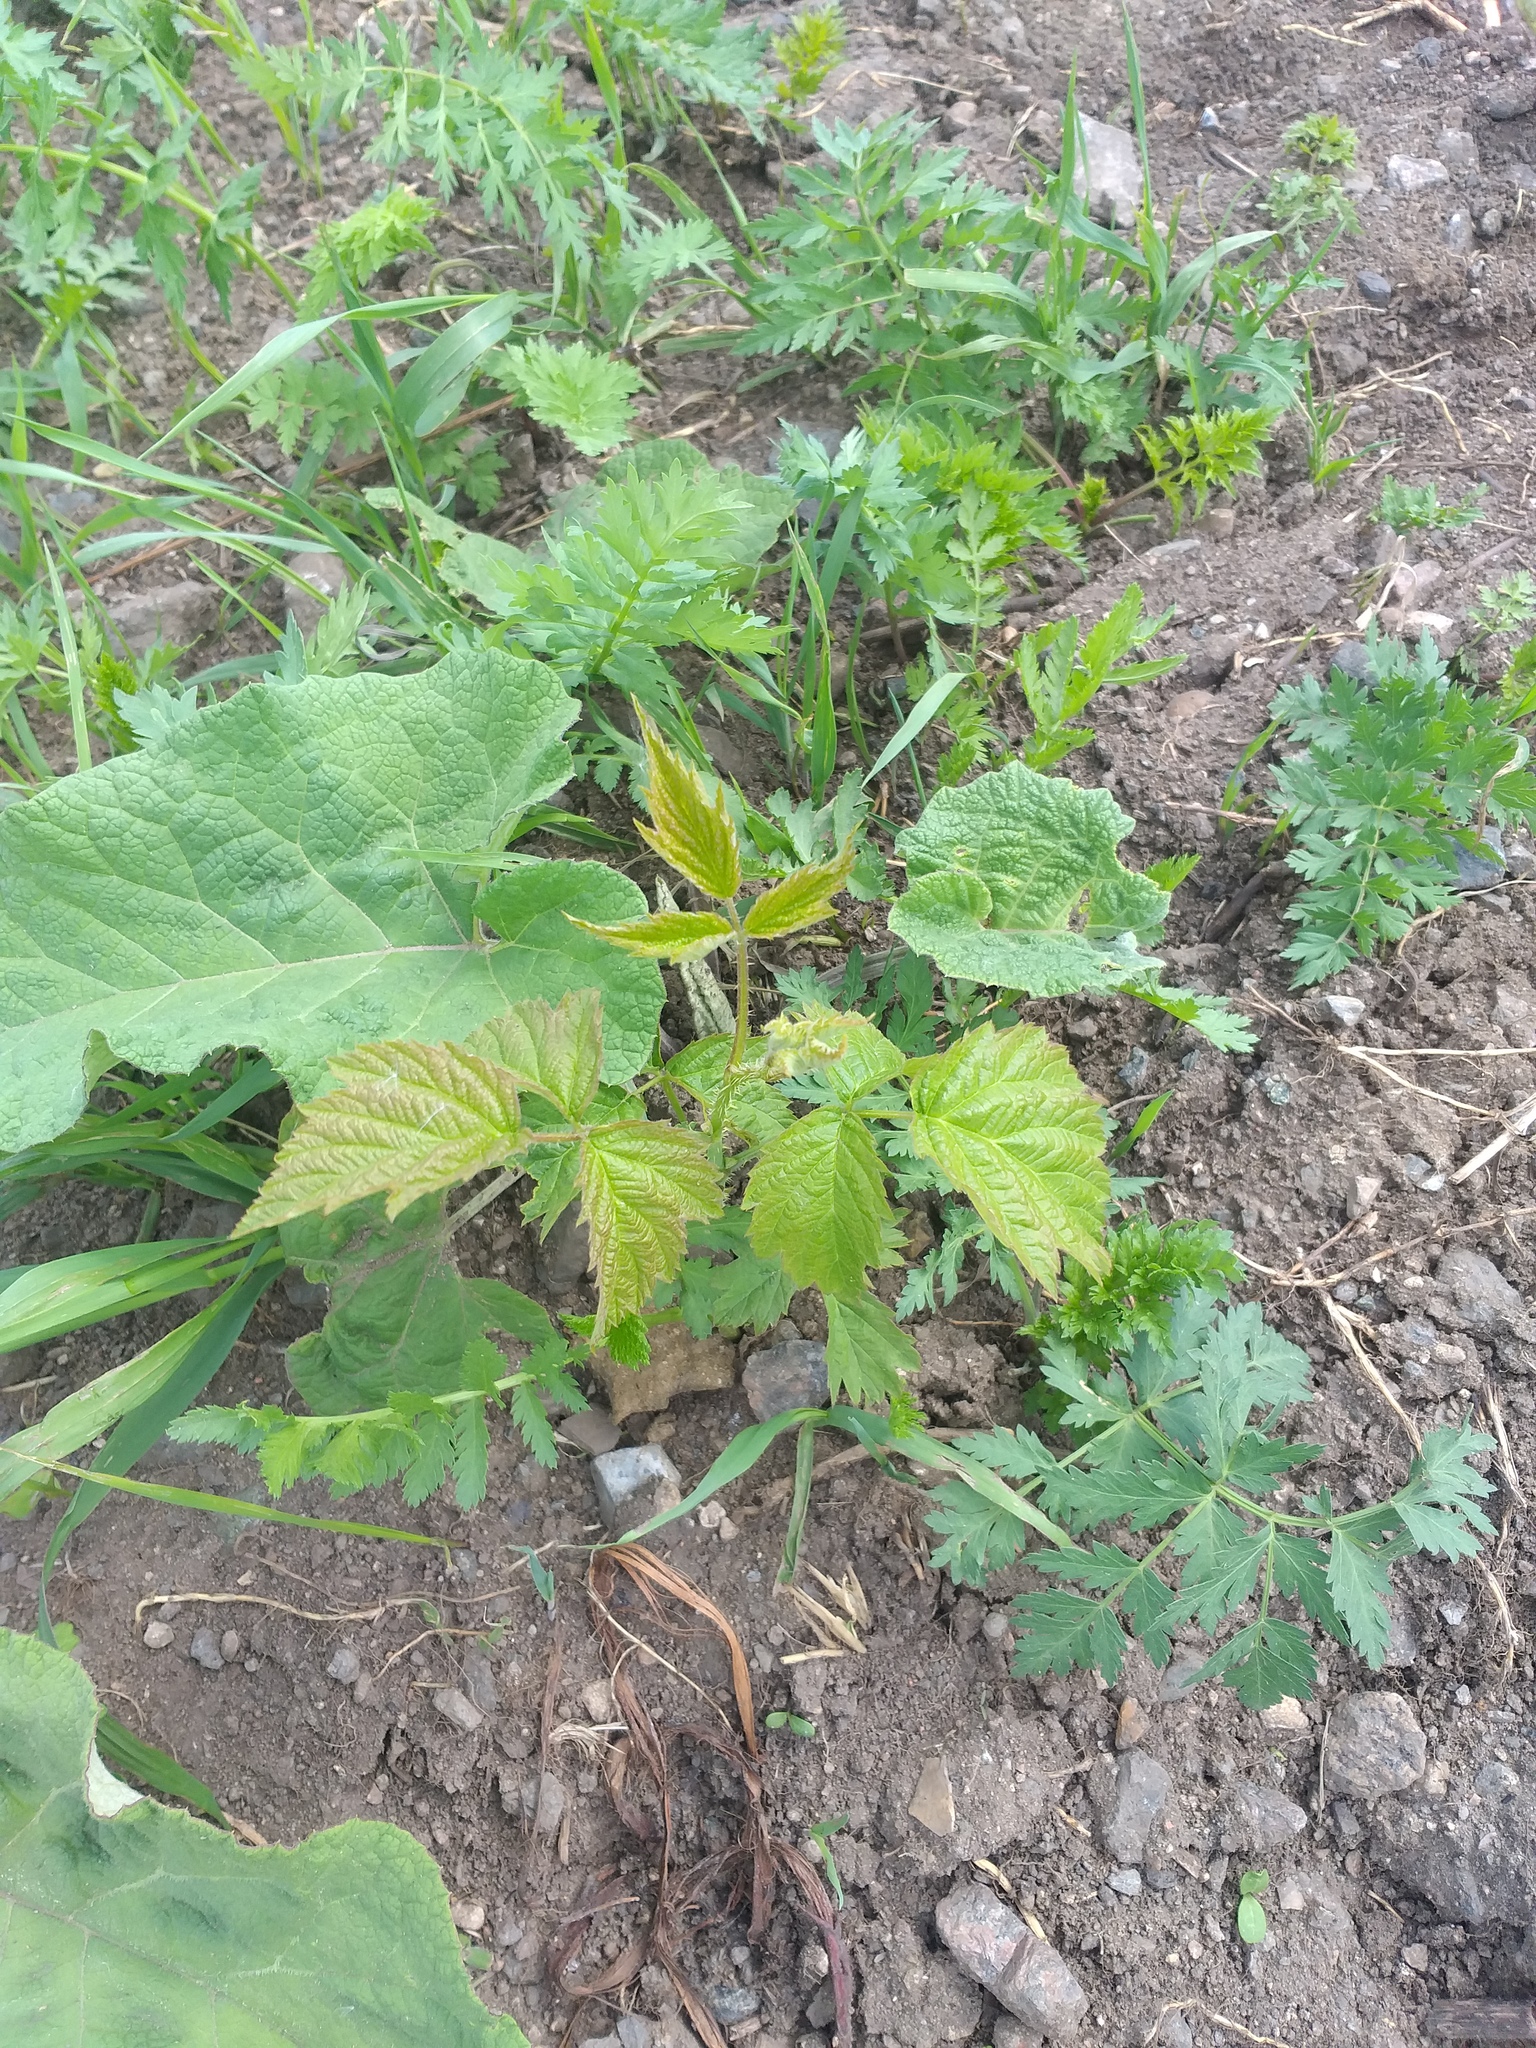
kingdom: Plantae
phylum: Tracheophyta
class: Magnoliopsida
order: Rosales
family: Rosaceae
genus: Rubus
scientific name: Rubus caesius
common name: Dewberry
